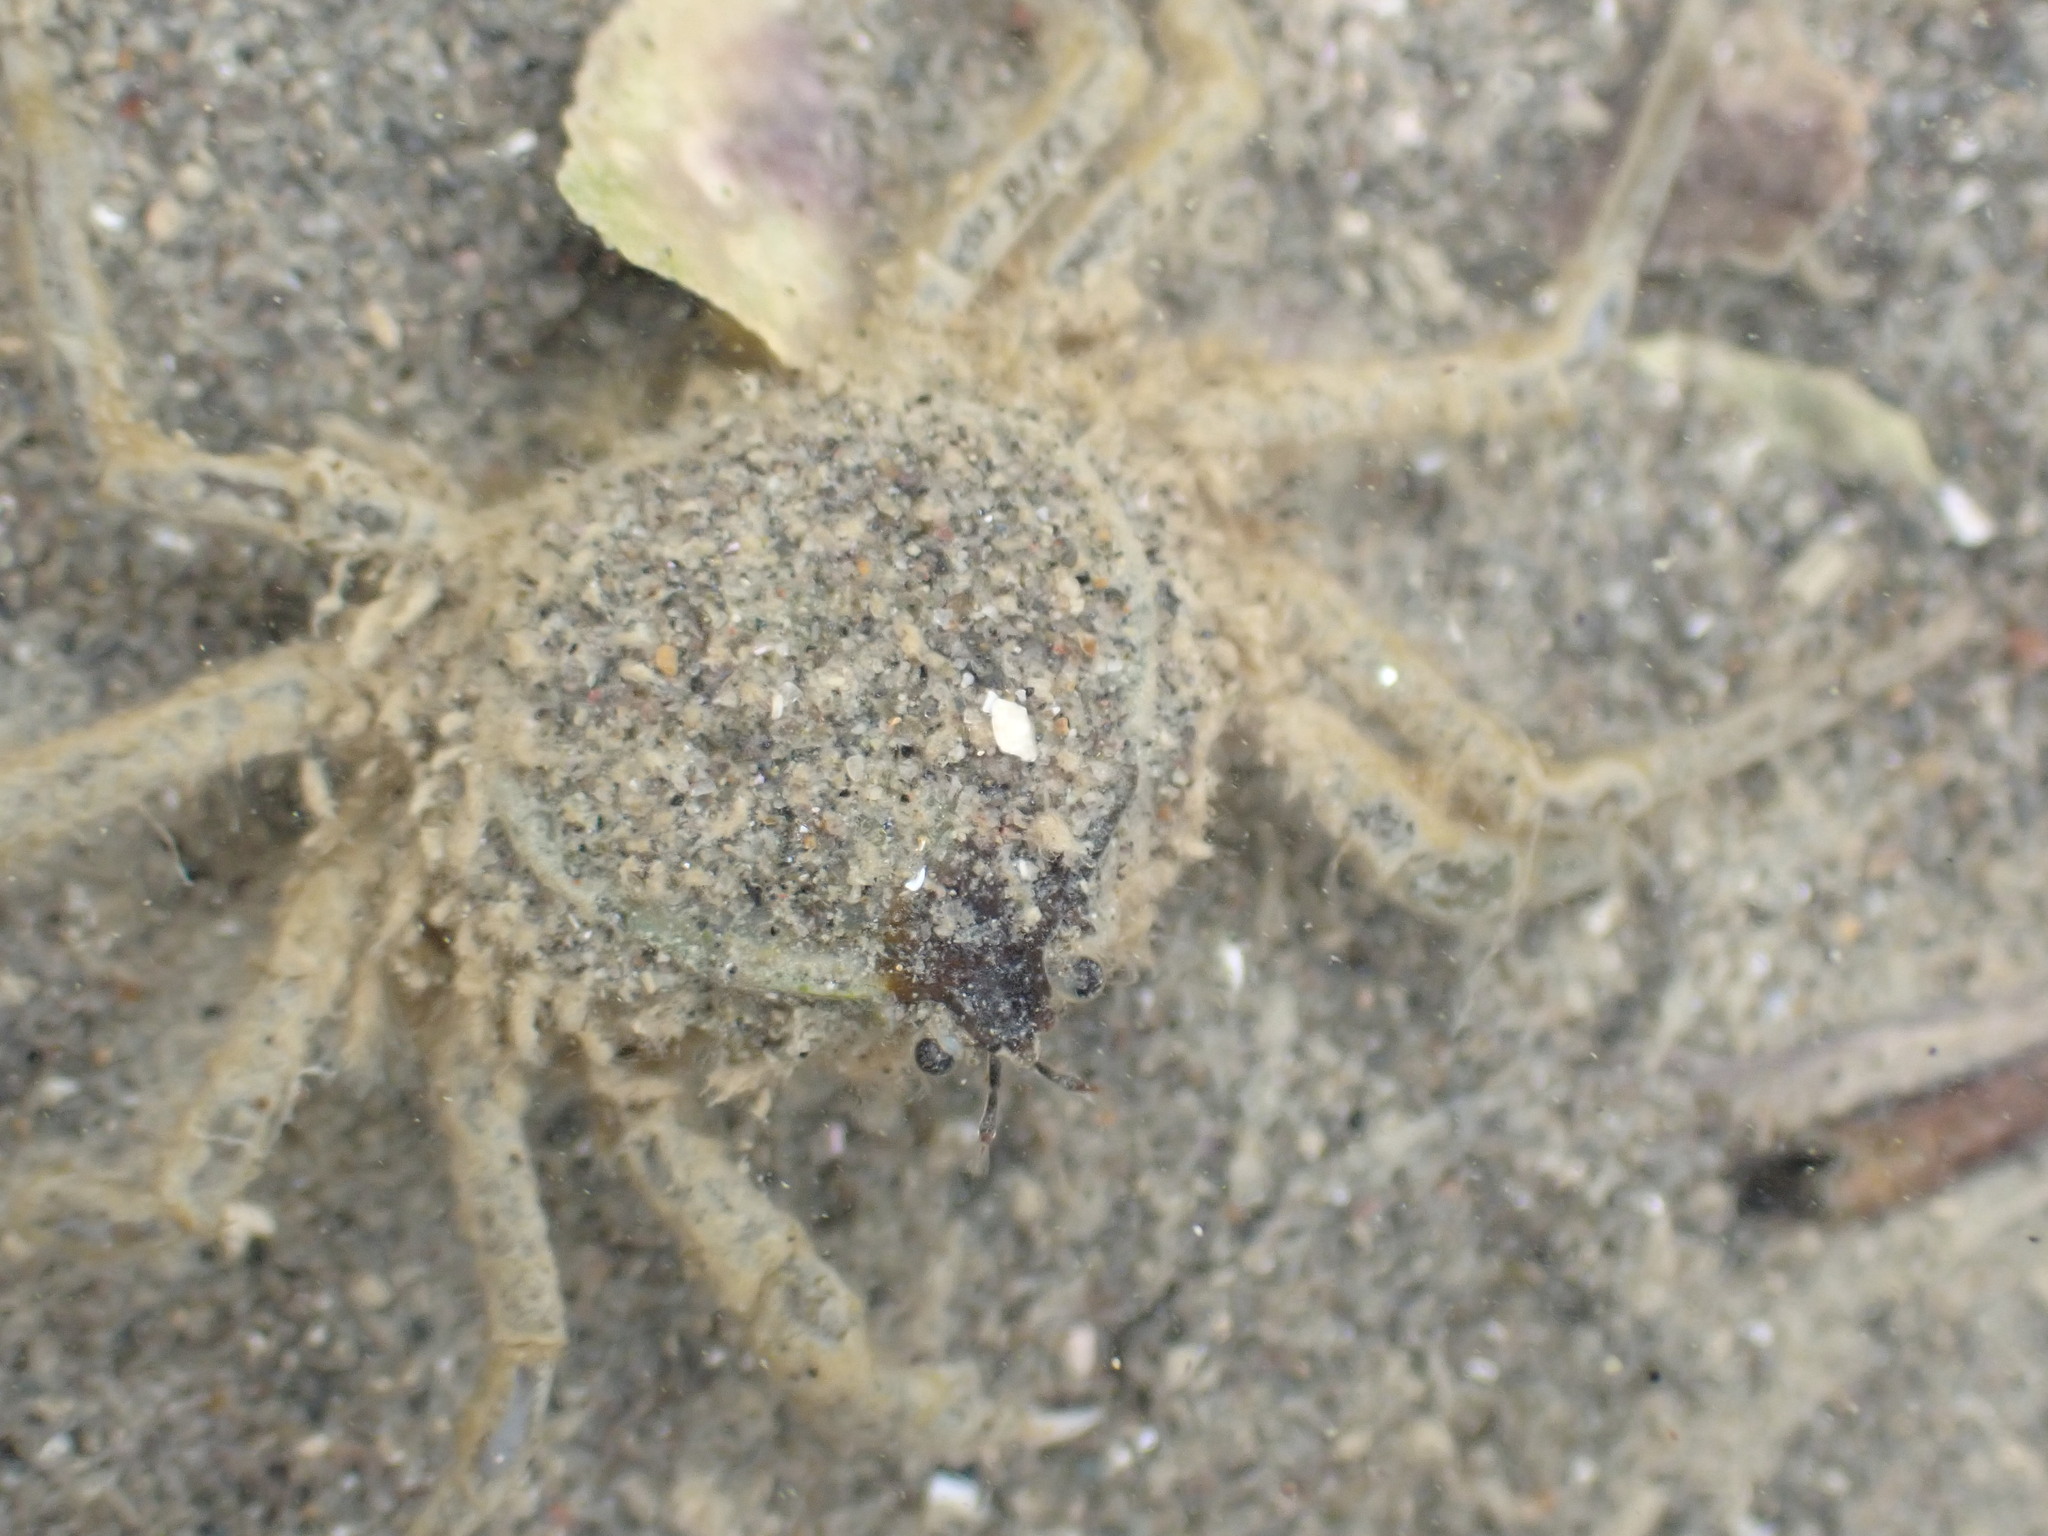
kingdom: Animalia
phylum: Arthropoda
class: Malacostraca
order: Decapoda
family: Hymenosomatidae
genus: Halicarcinus
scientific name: Halicarcinus whitei
